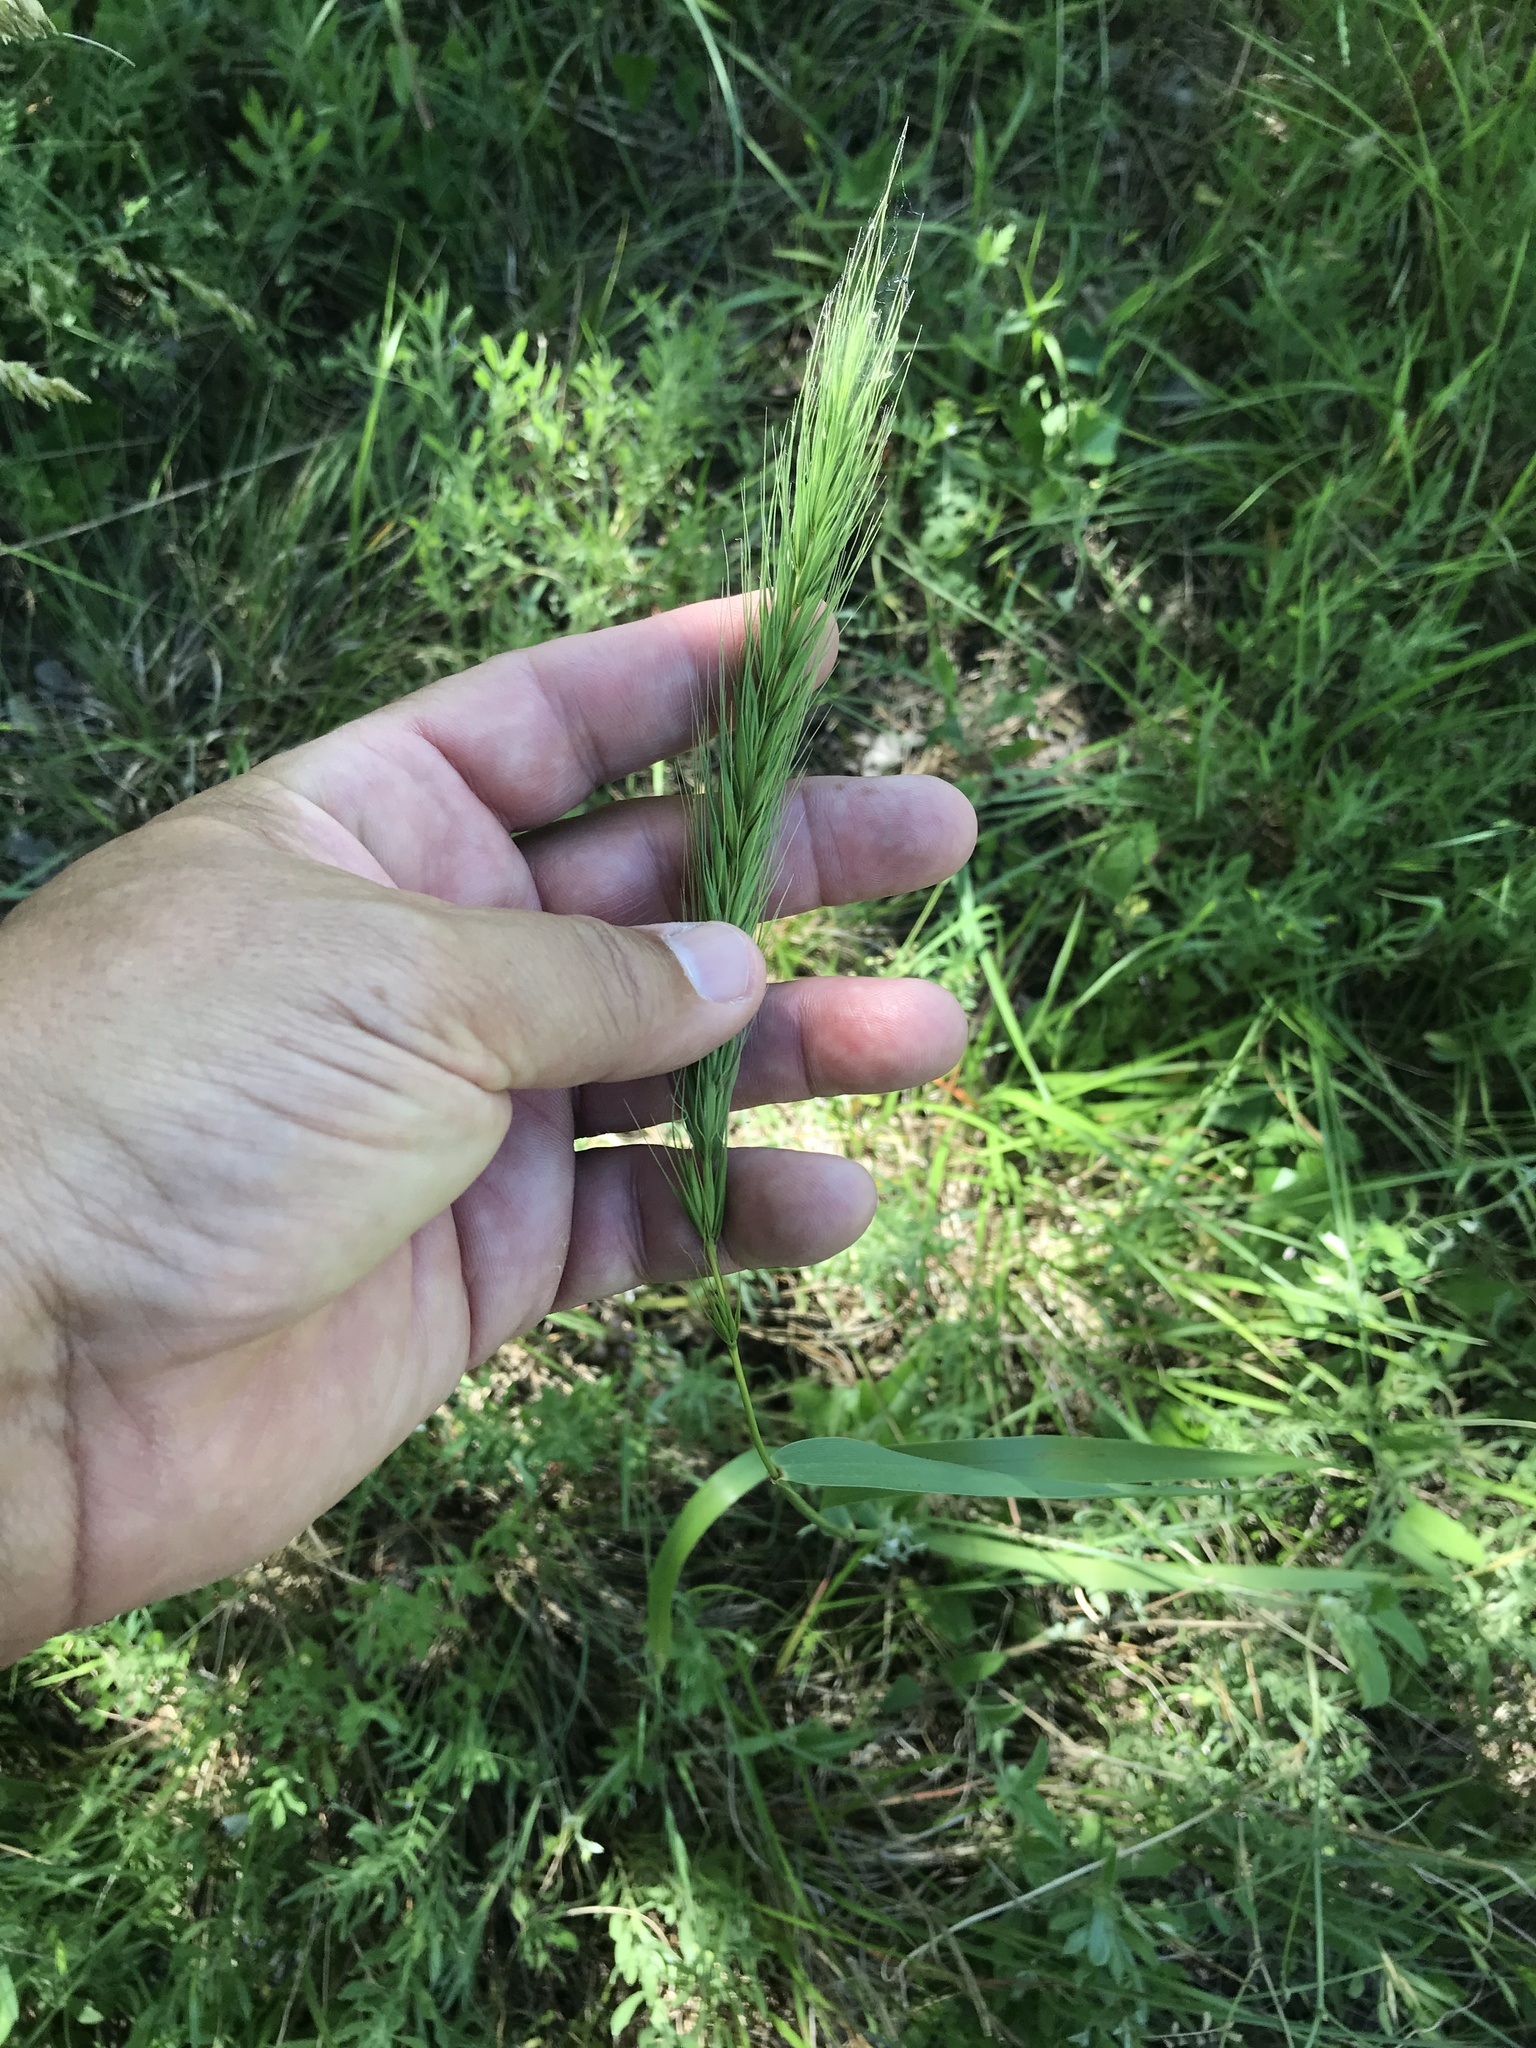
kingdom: Plantae
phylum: Tracheophyta
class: Liliopsida
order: Poales
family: Poaceae
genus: Elymus
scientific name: Elymus virginicus
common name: Common eastern wildrye
